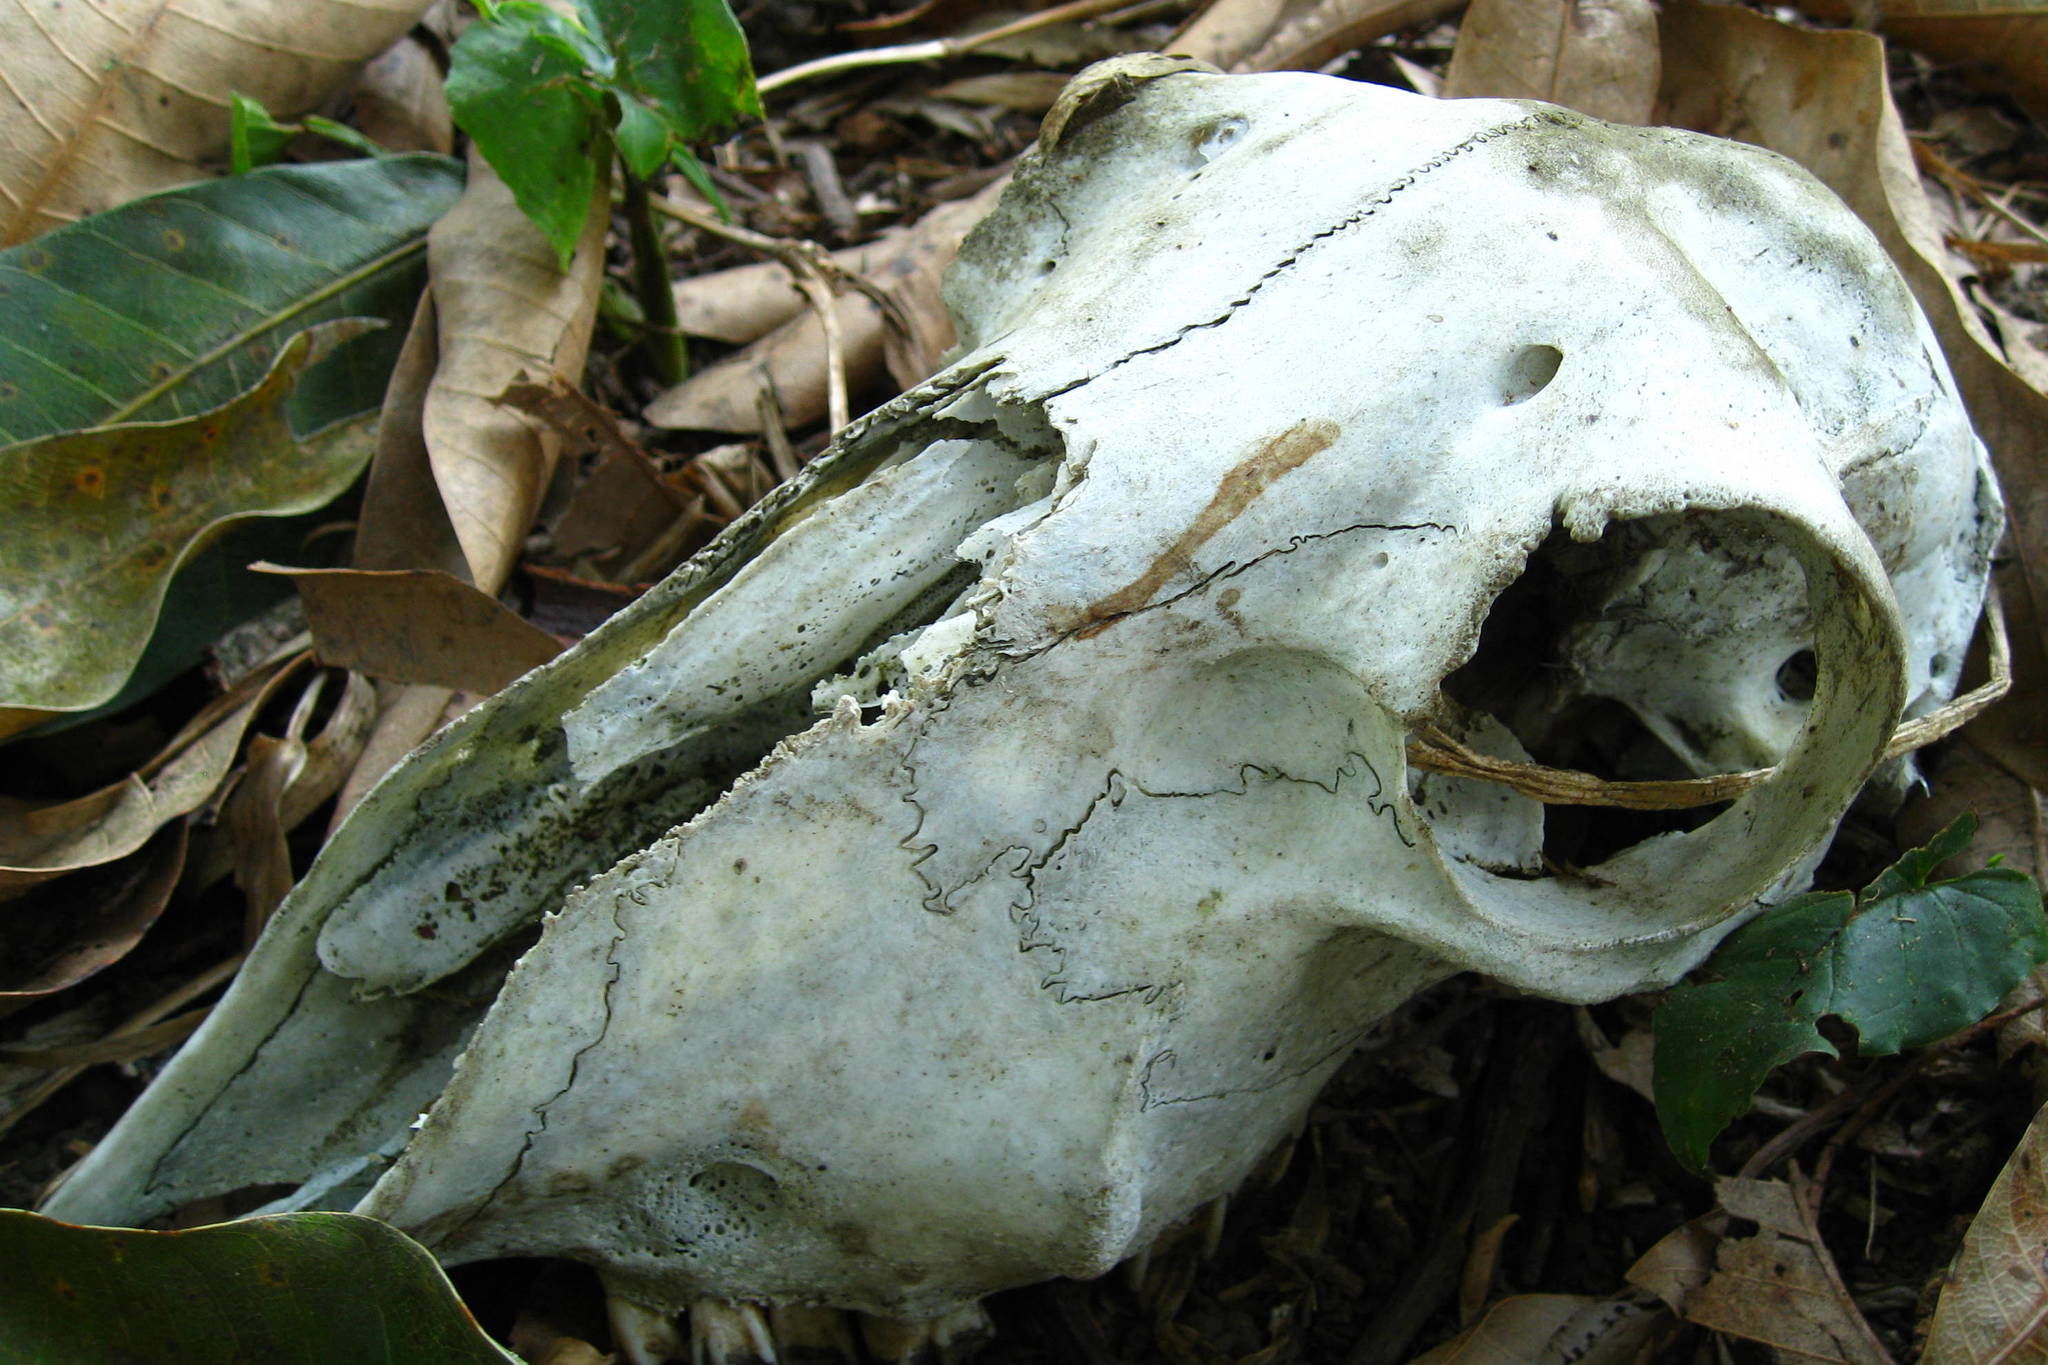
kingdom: Animalia
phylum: Chordata
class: Mammalia
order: Artiodactyla
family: Bovidae
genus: Ovis
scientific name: Ovis aries
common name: Domestic sheep
